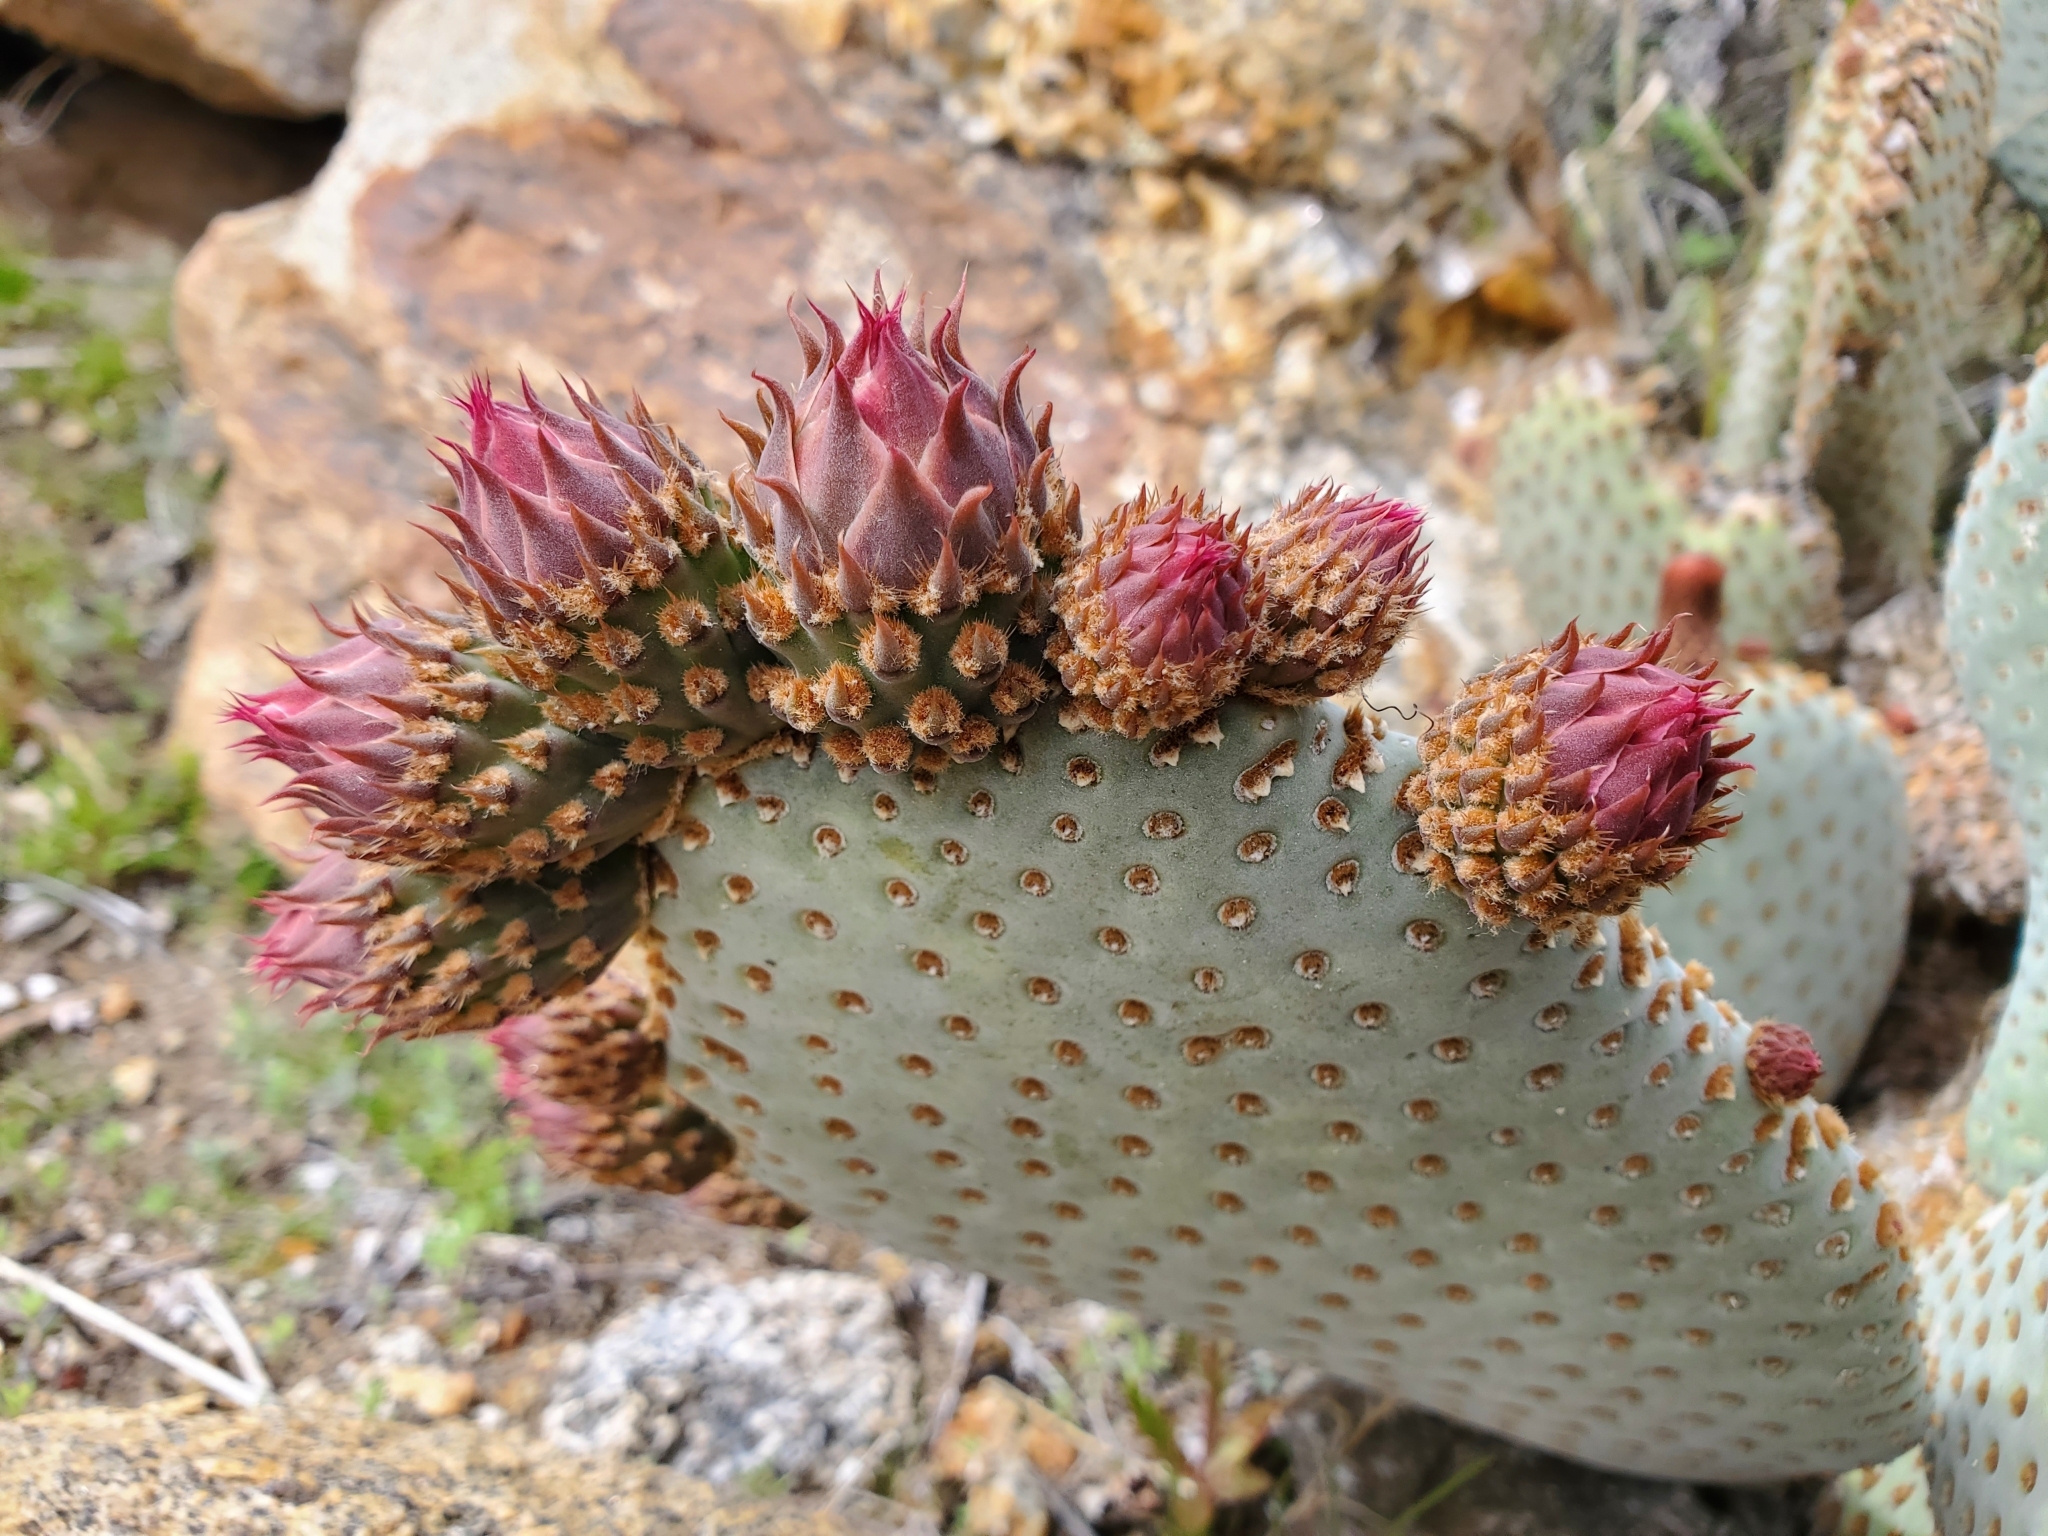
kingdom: Plantae
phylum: Tracheophyta
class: Magnoliopsida
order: Caryophyllales
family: Cactaceae
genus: Opuntia
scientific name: Opuntia basilaris
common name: Beavertail prickly-pear
